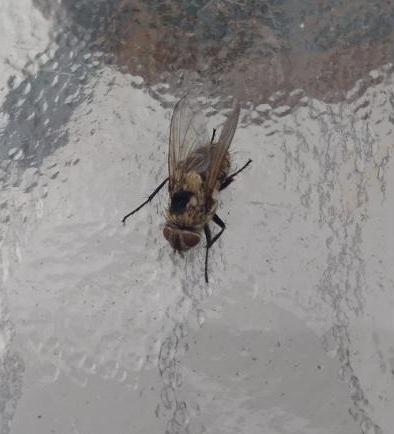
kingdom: Animalia
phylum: Arthropoda
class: Insecta
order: Diptera
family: Polleniidae
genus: Pollenia
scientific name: Pollenia
